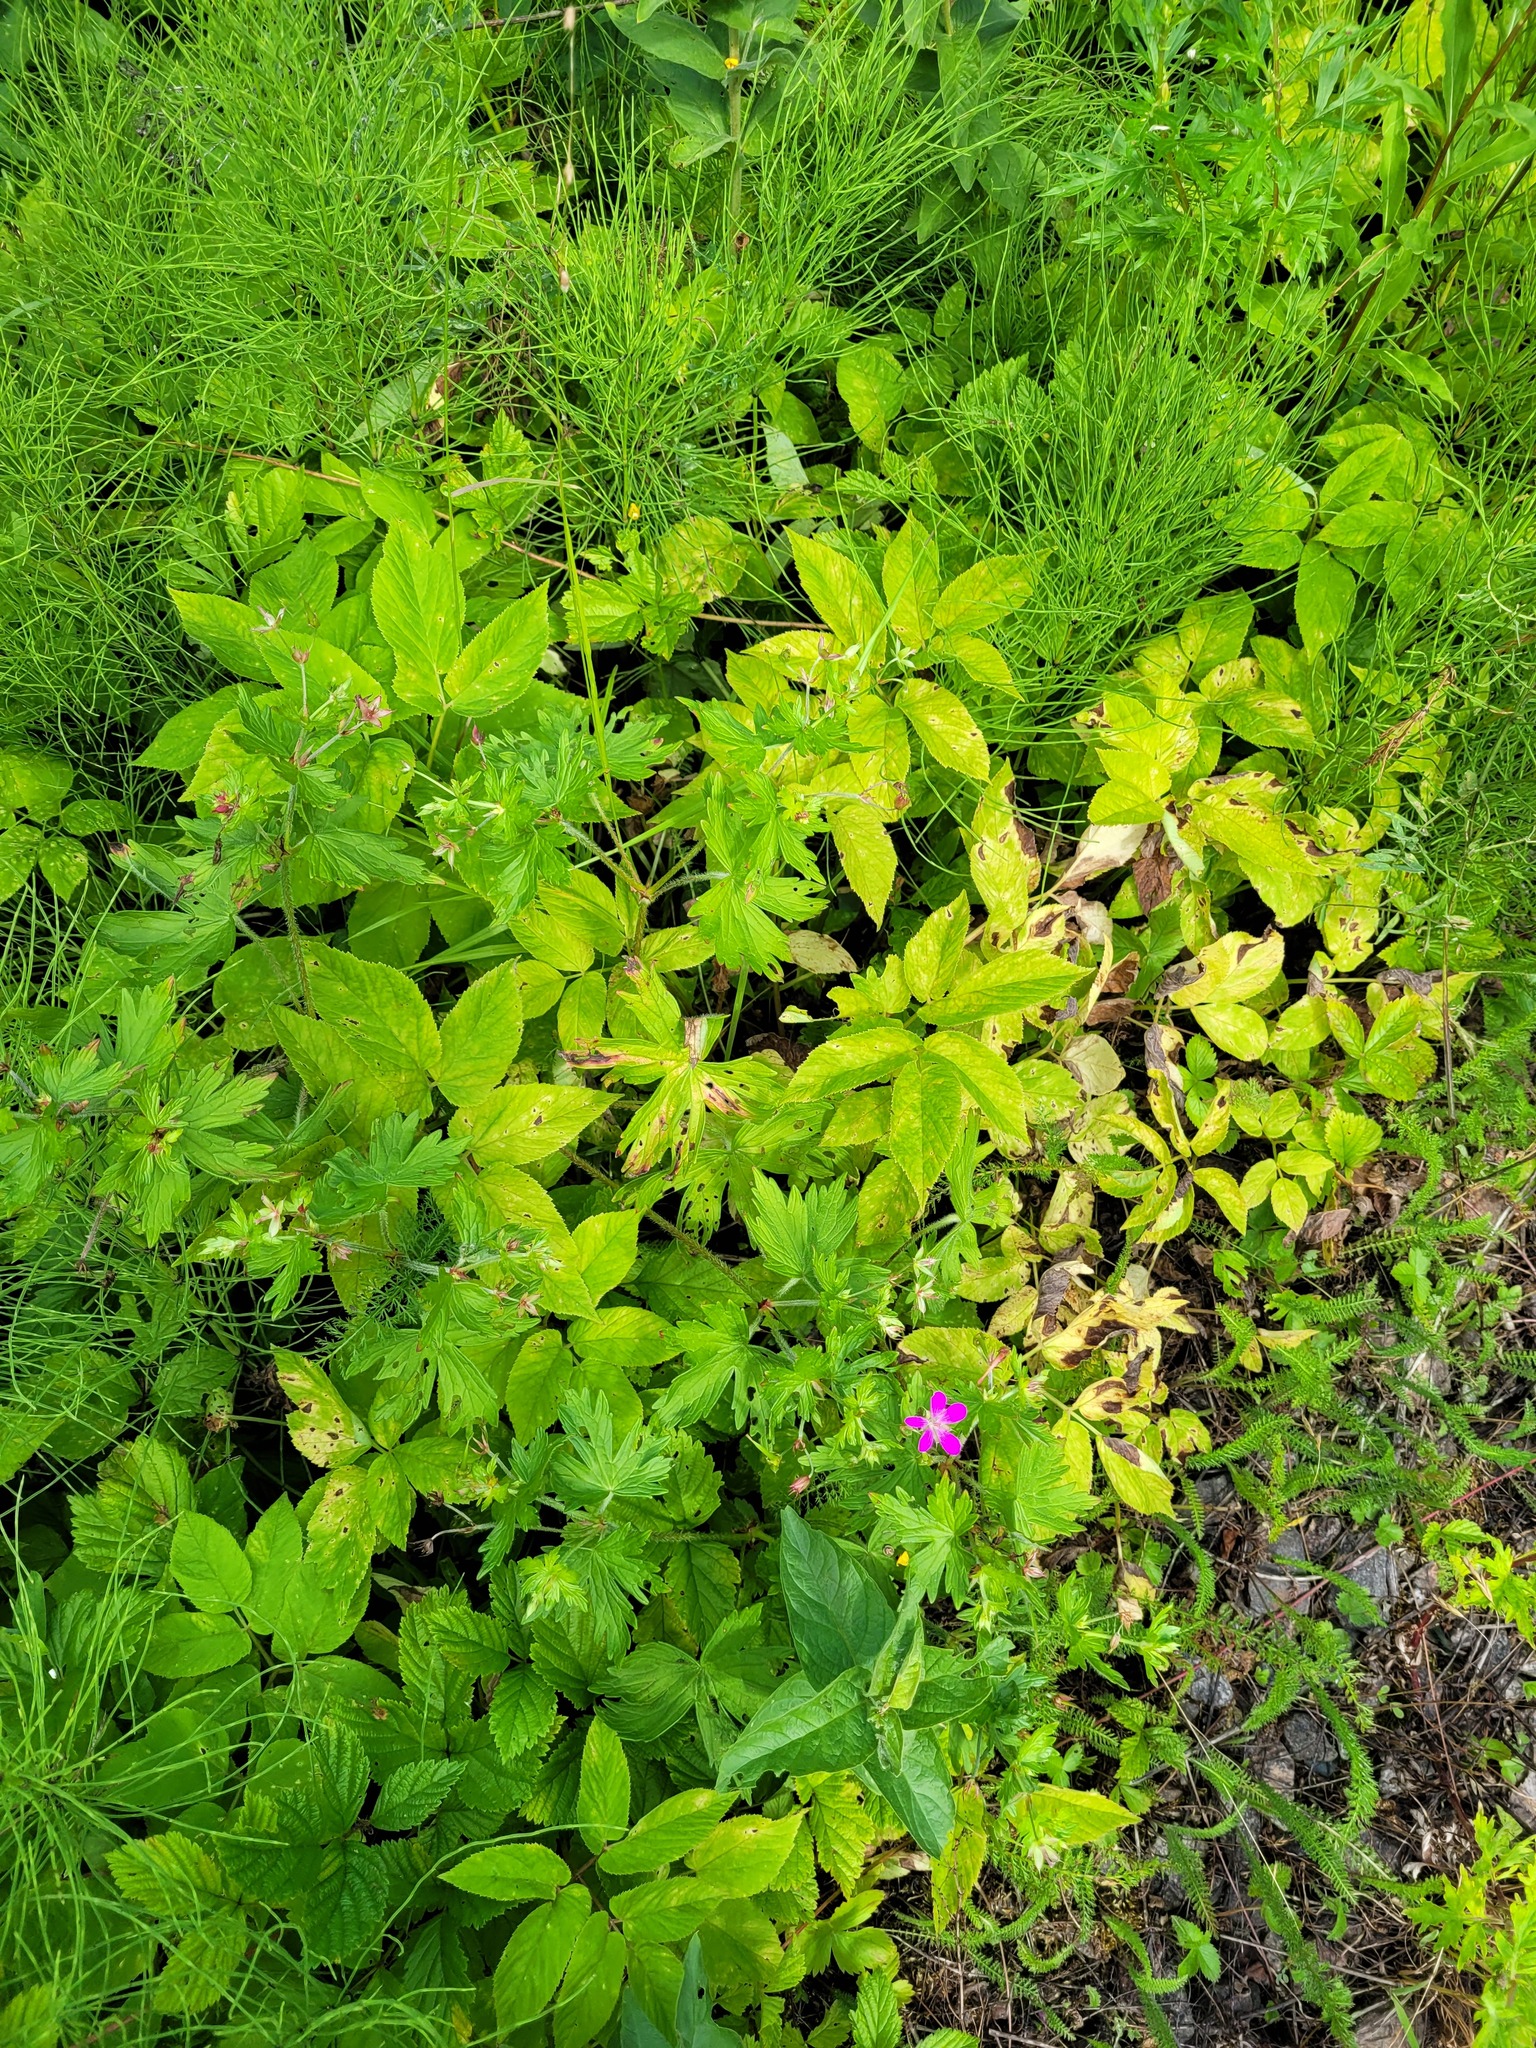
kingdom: Plantae
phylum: Tracheophyta
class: Magnoliopsida
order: Geraniales
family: Geraniaceae
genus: Geranium
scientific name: Geranium palustre
